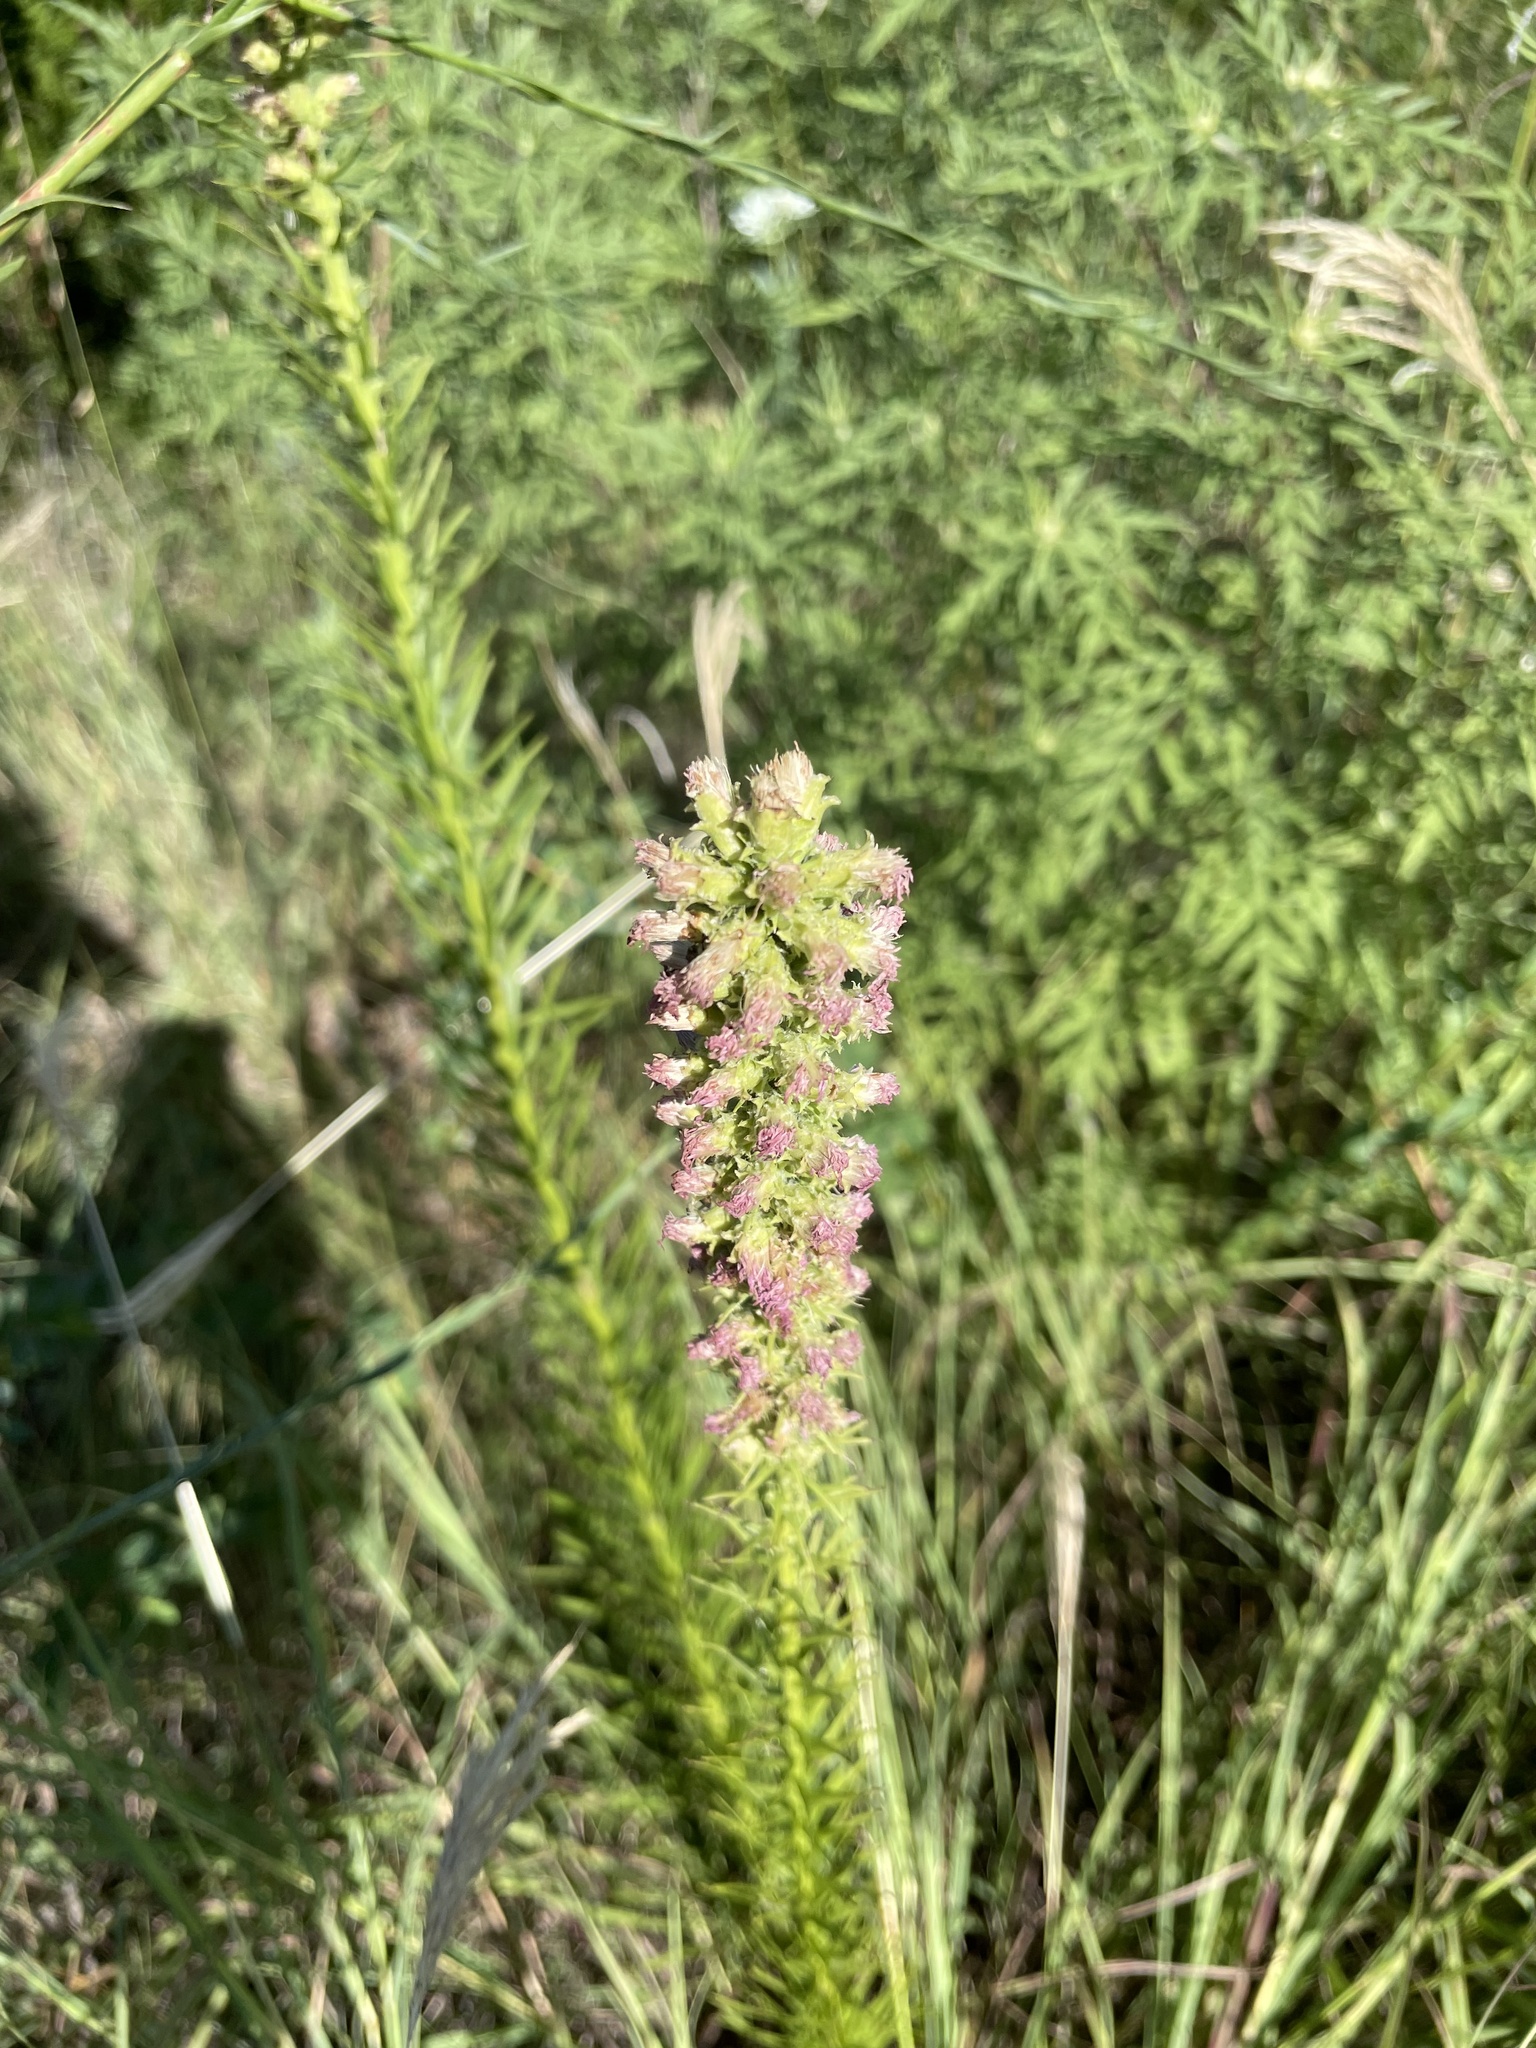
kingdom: Plantae
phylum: Tracheophyta
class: Magnoliopsida
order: Asterales
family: Asteraceae
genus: Liatris
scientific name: Liatris pycnostachya
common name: Cattail gayfeather
